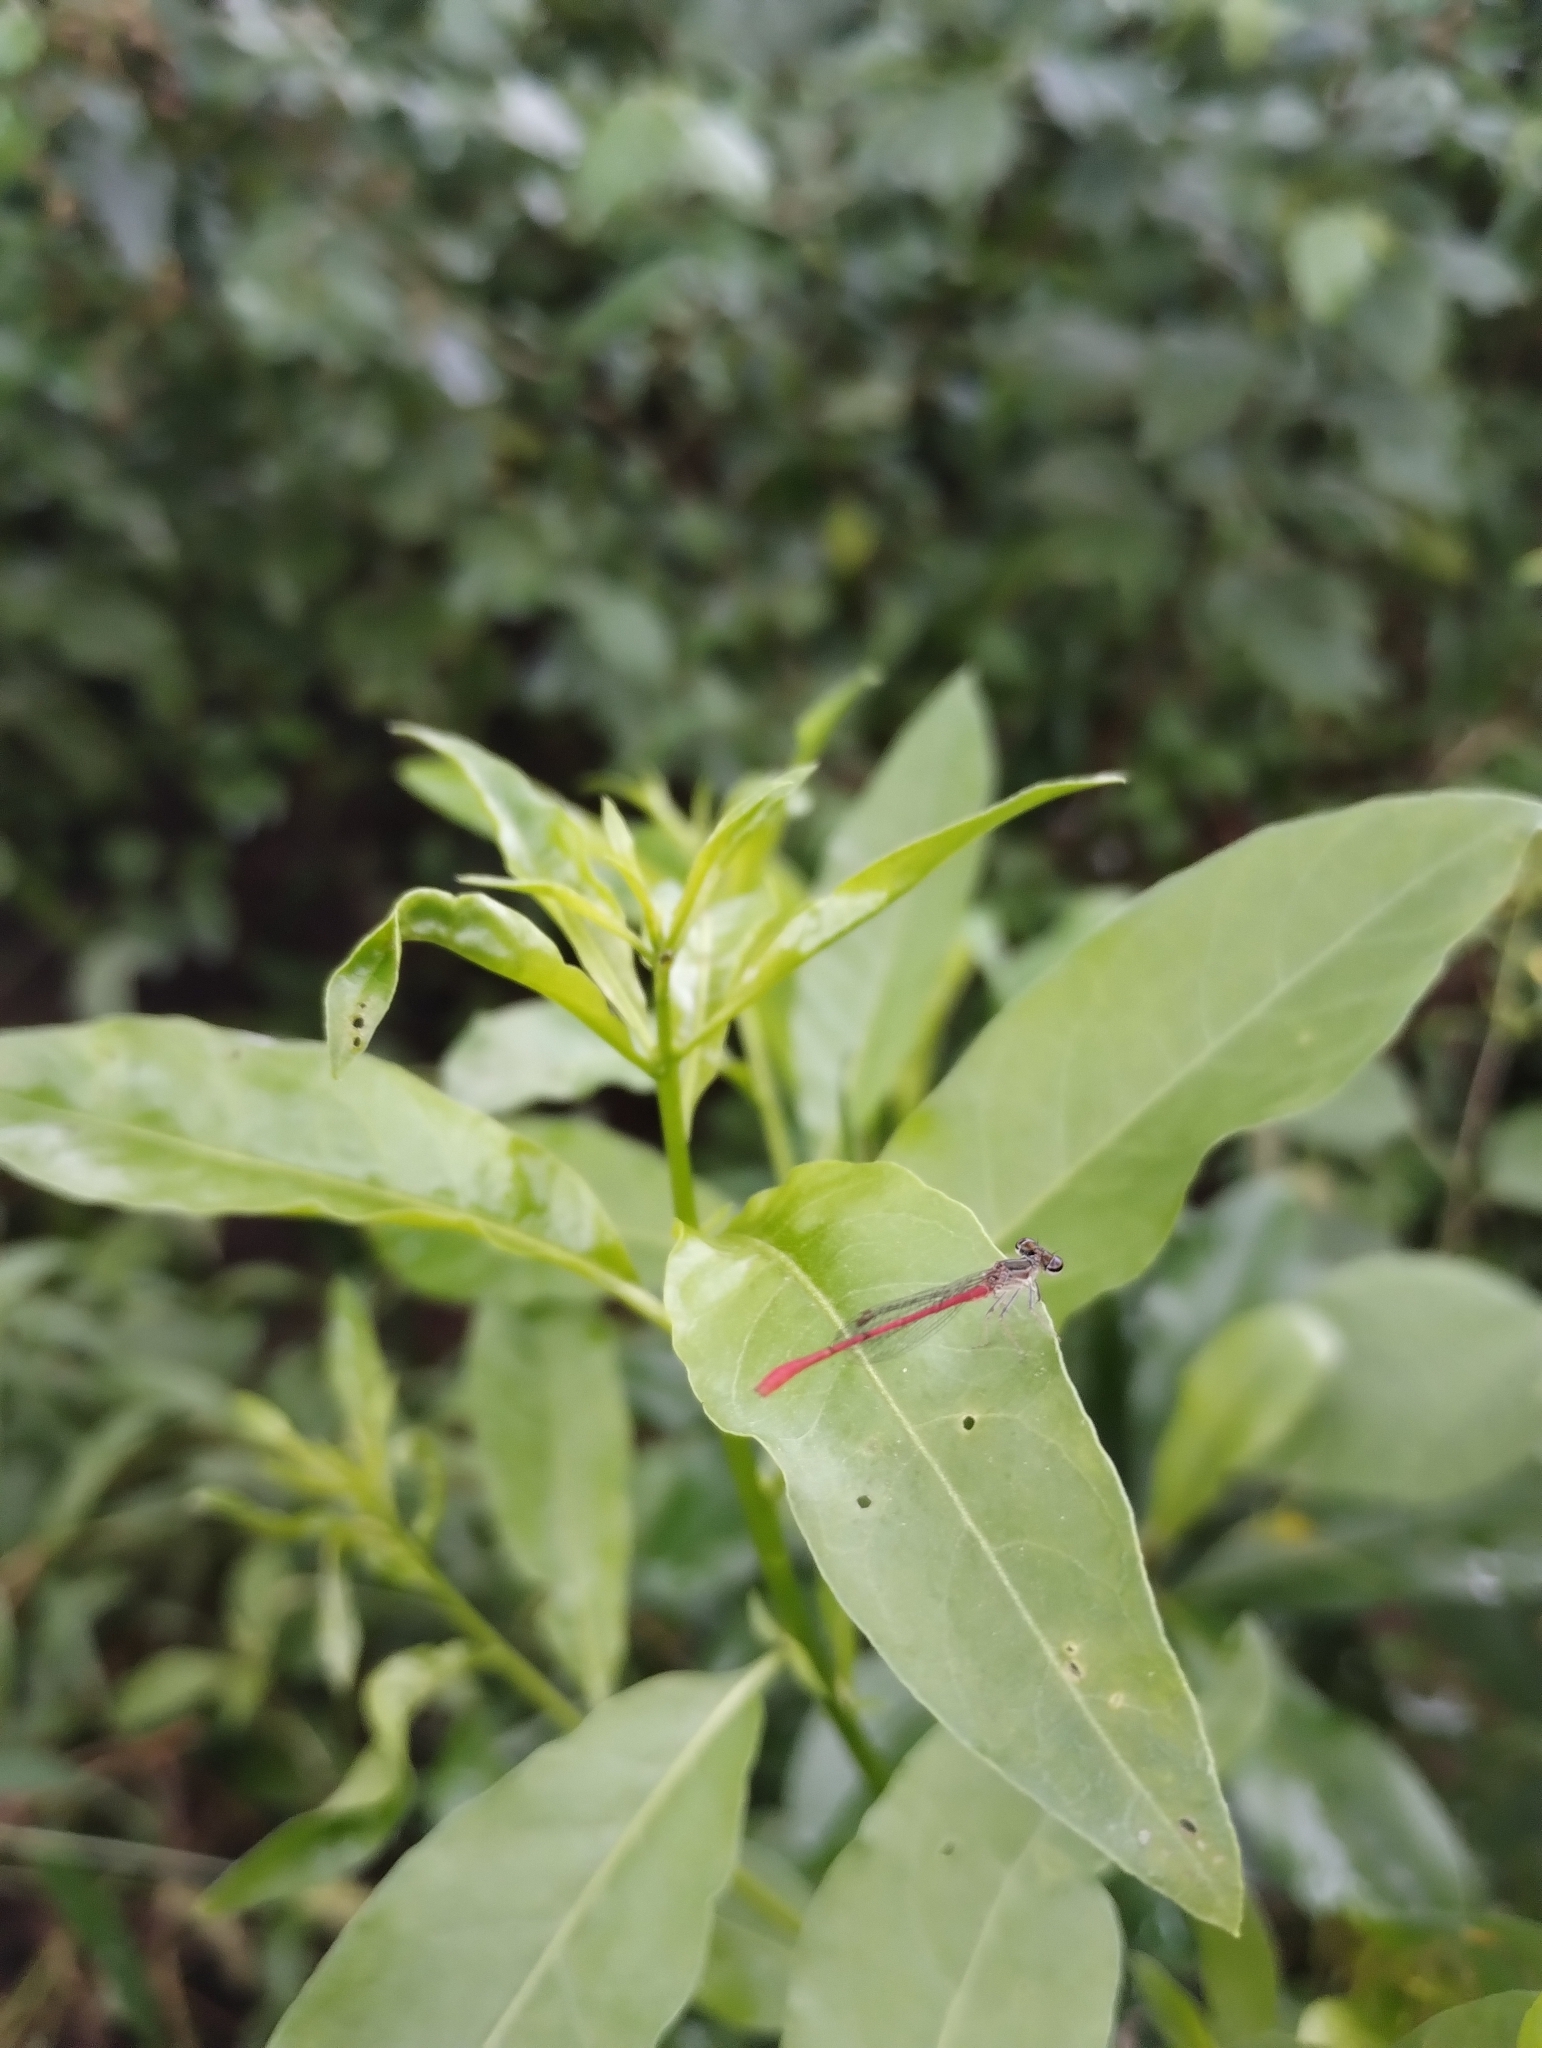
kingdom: Animalia
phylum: Arthropoda
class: Insecta
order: Odonata
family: Coenagrionidae
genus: Telebasis
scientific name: Telebasis willinki
